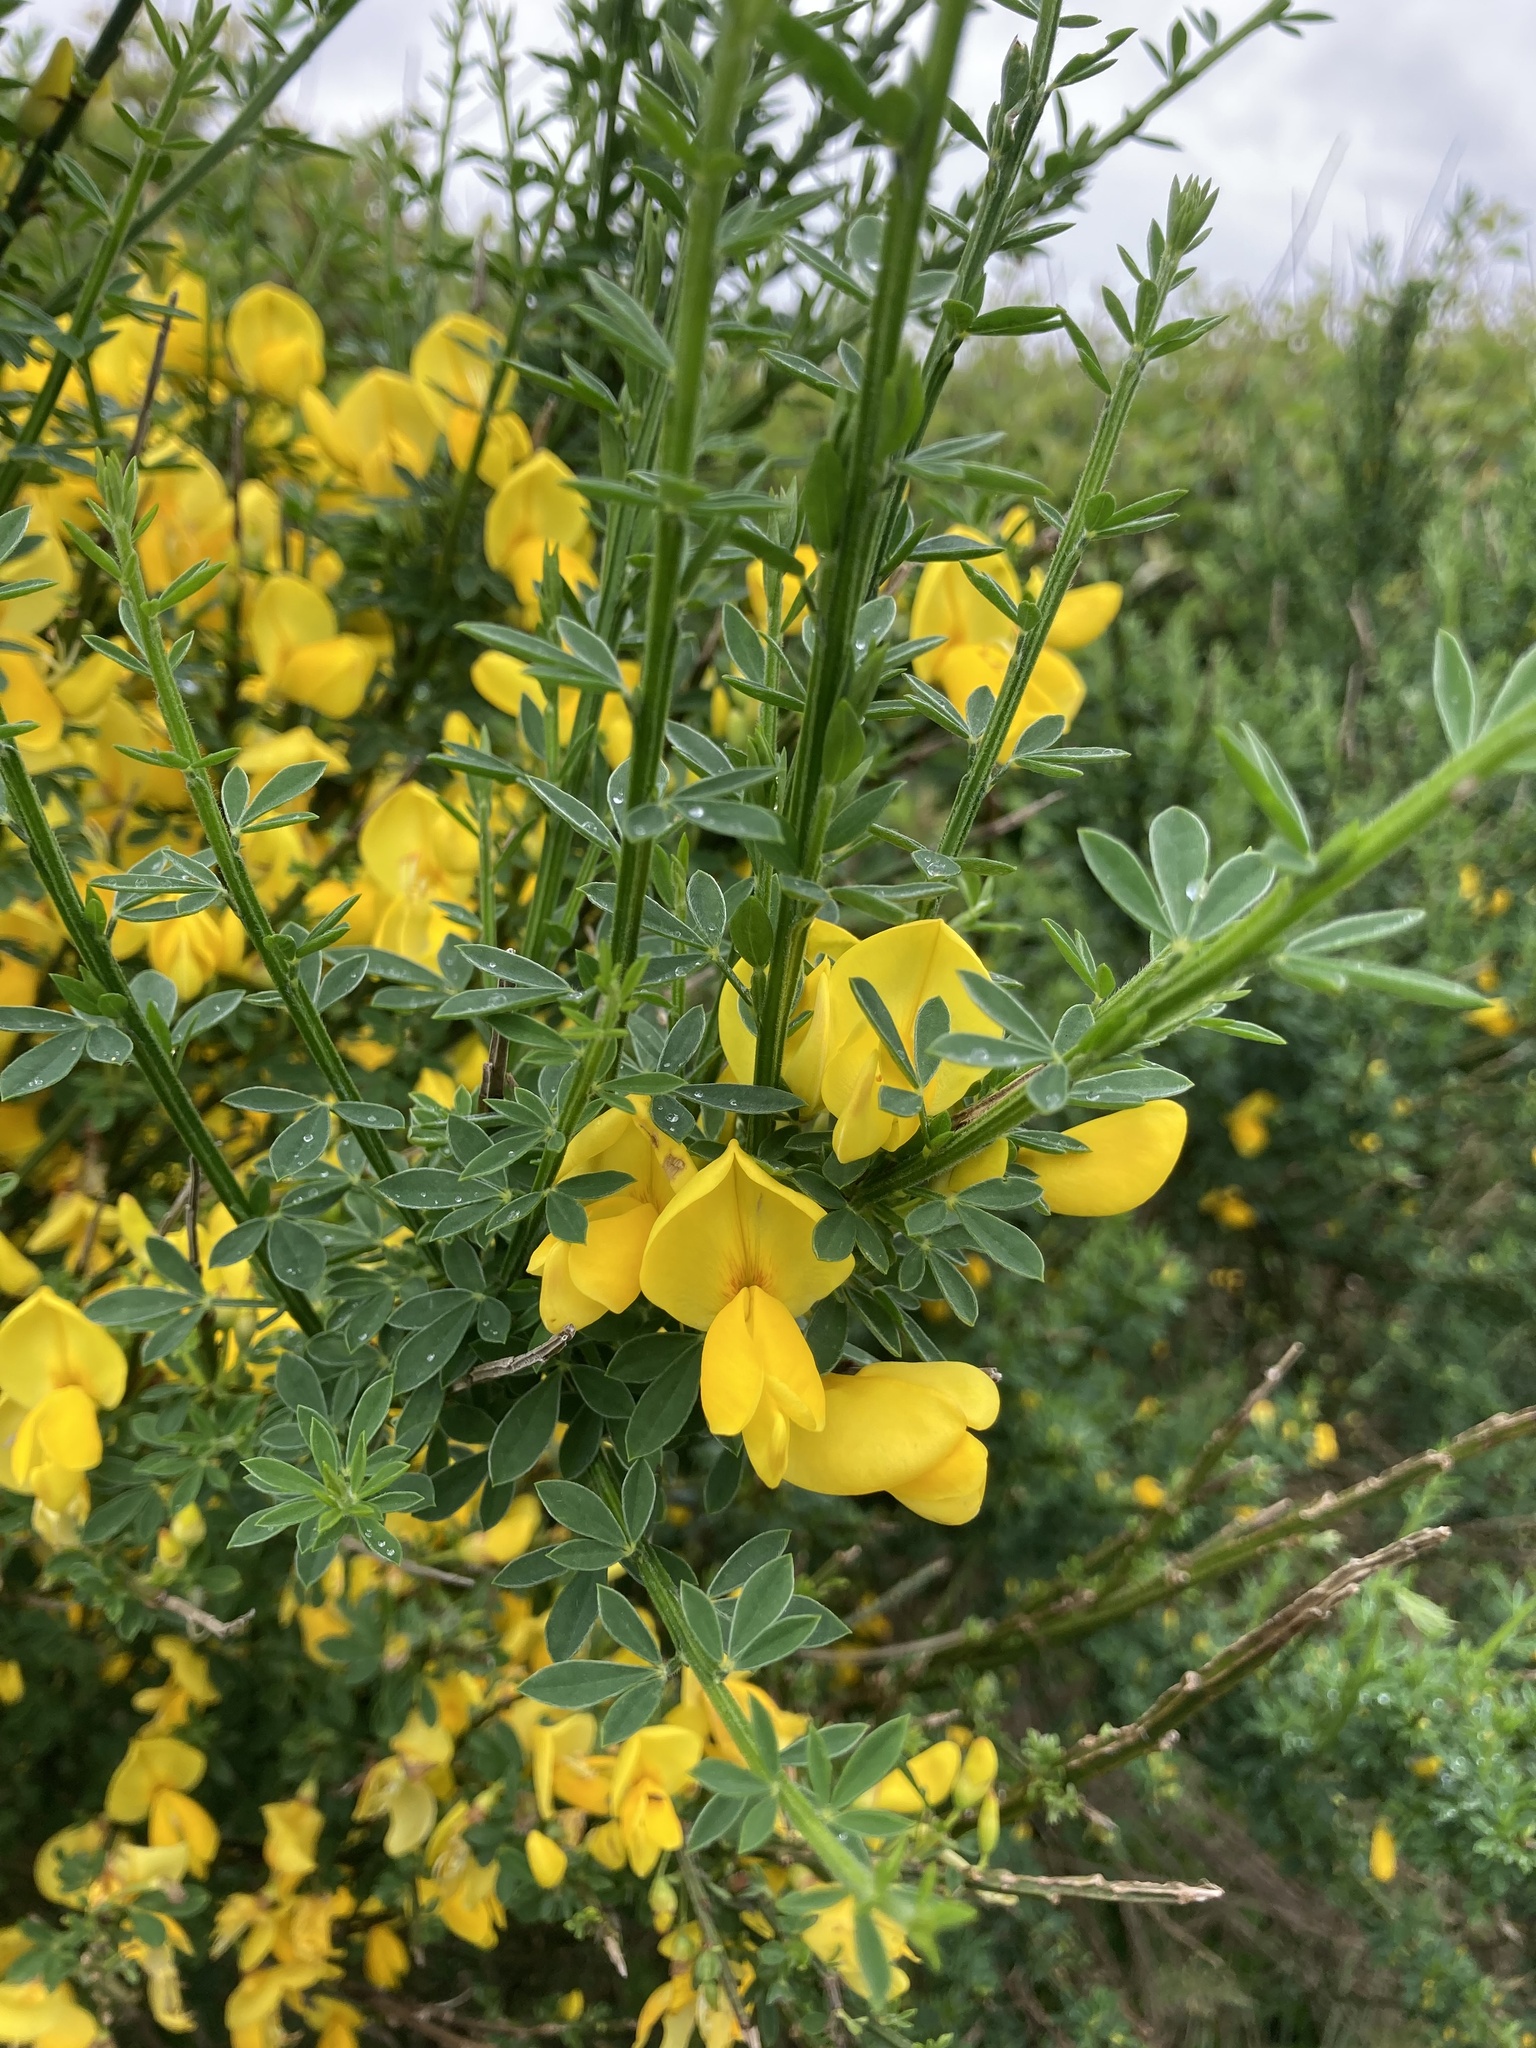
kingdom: Plantae
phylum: Tracheophyta
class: Magnoliopsida
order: Fabales
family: Fabaceae
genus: Cytisus
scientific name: Cytisus scoparius
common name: Scotch broom
